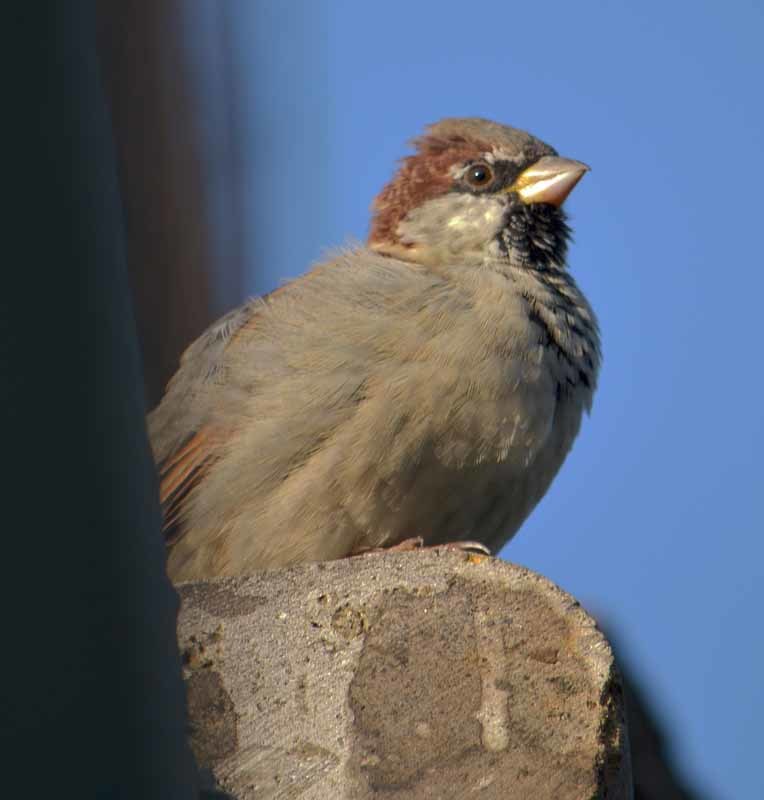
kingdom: Animalia
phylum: Chordata
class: Aves
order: Passeriformes
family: Passeridae
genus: Passer
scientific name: Passer domesticus
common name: House sparrow
